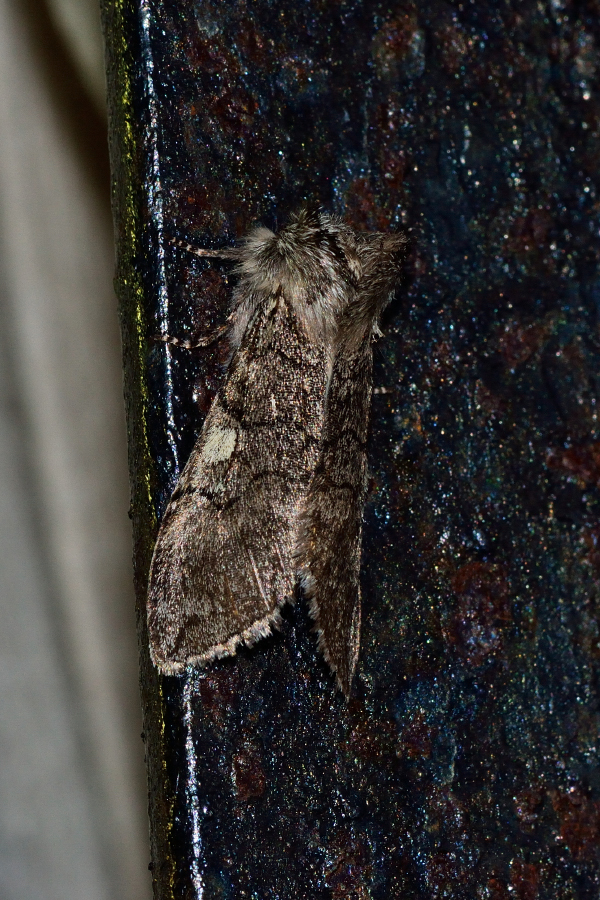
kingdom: Animalia
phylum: Arthropoda
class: Insecta
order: Lepidoptera
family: Drepanidae
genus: Achlya
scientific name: Achlya flavicornis
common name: Yellow horned
